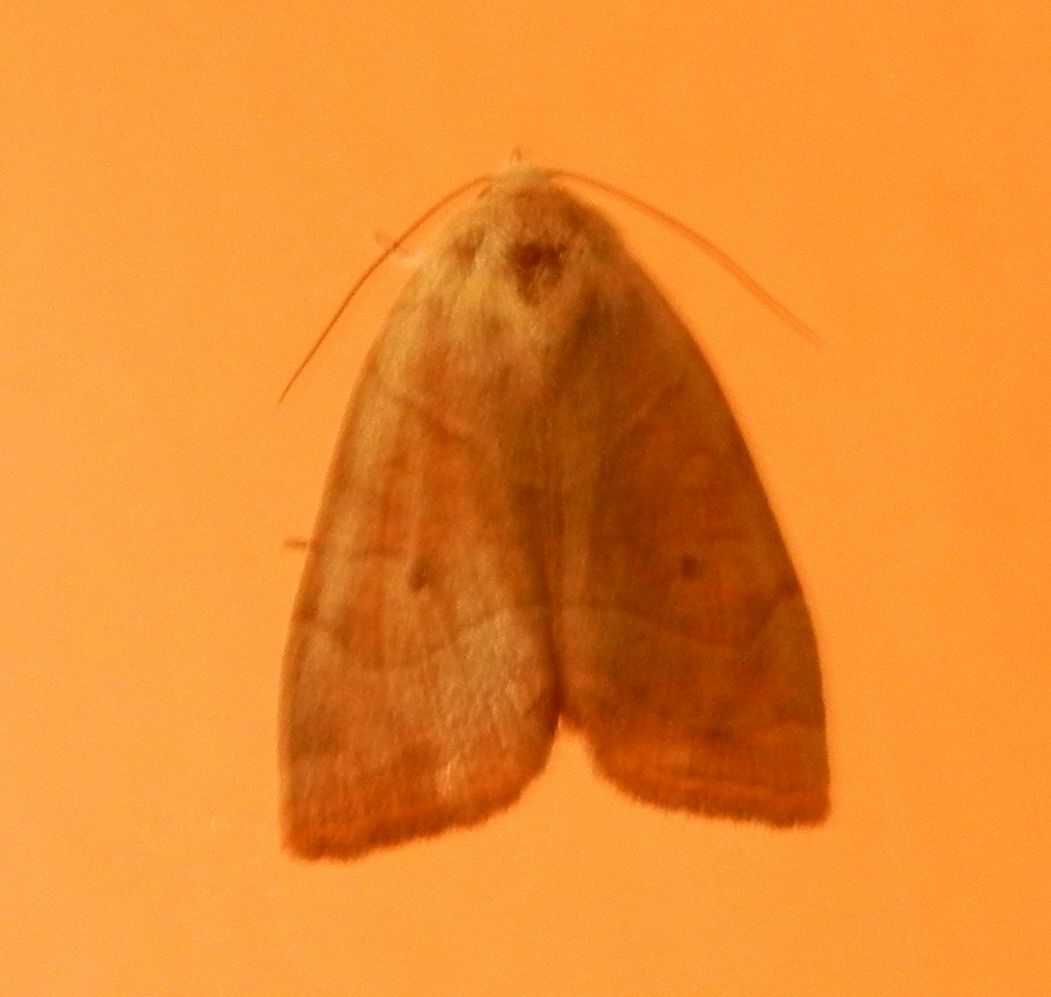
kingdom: Animalia
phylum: Arthropoda
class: Insecta
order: Lepidoptera
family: Noctuidae
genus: Cosmia
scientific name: Cosmia trapezina
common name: Dun-bar
